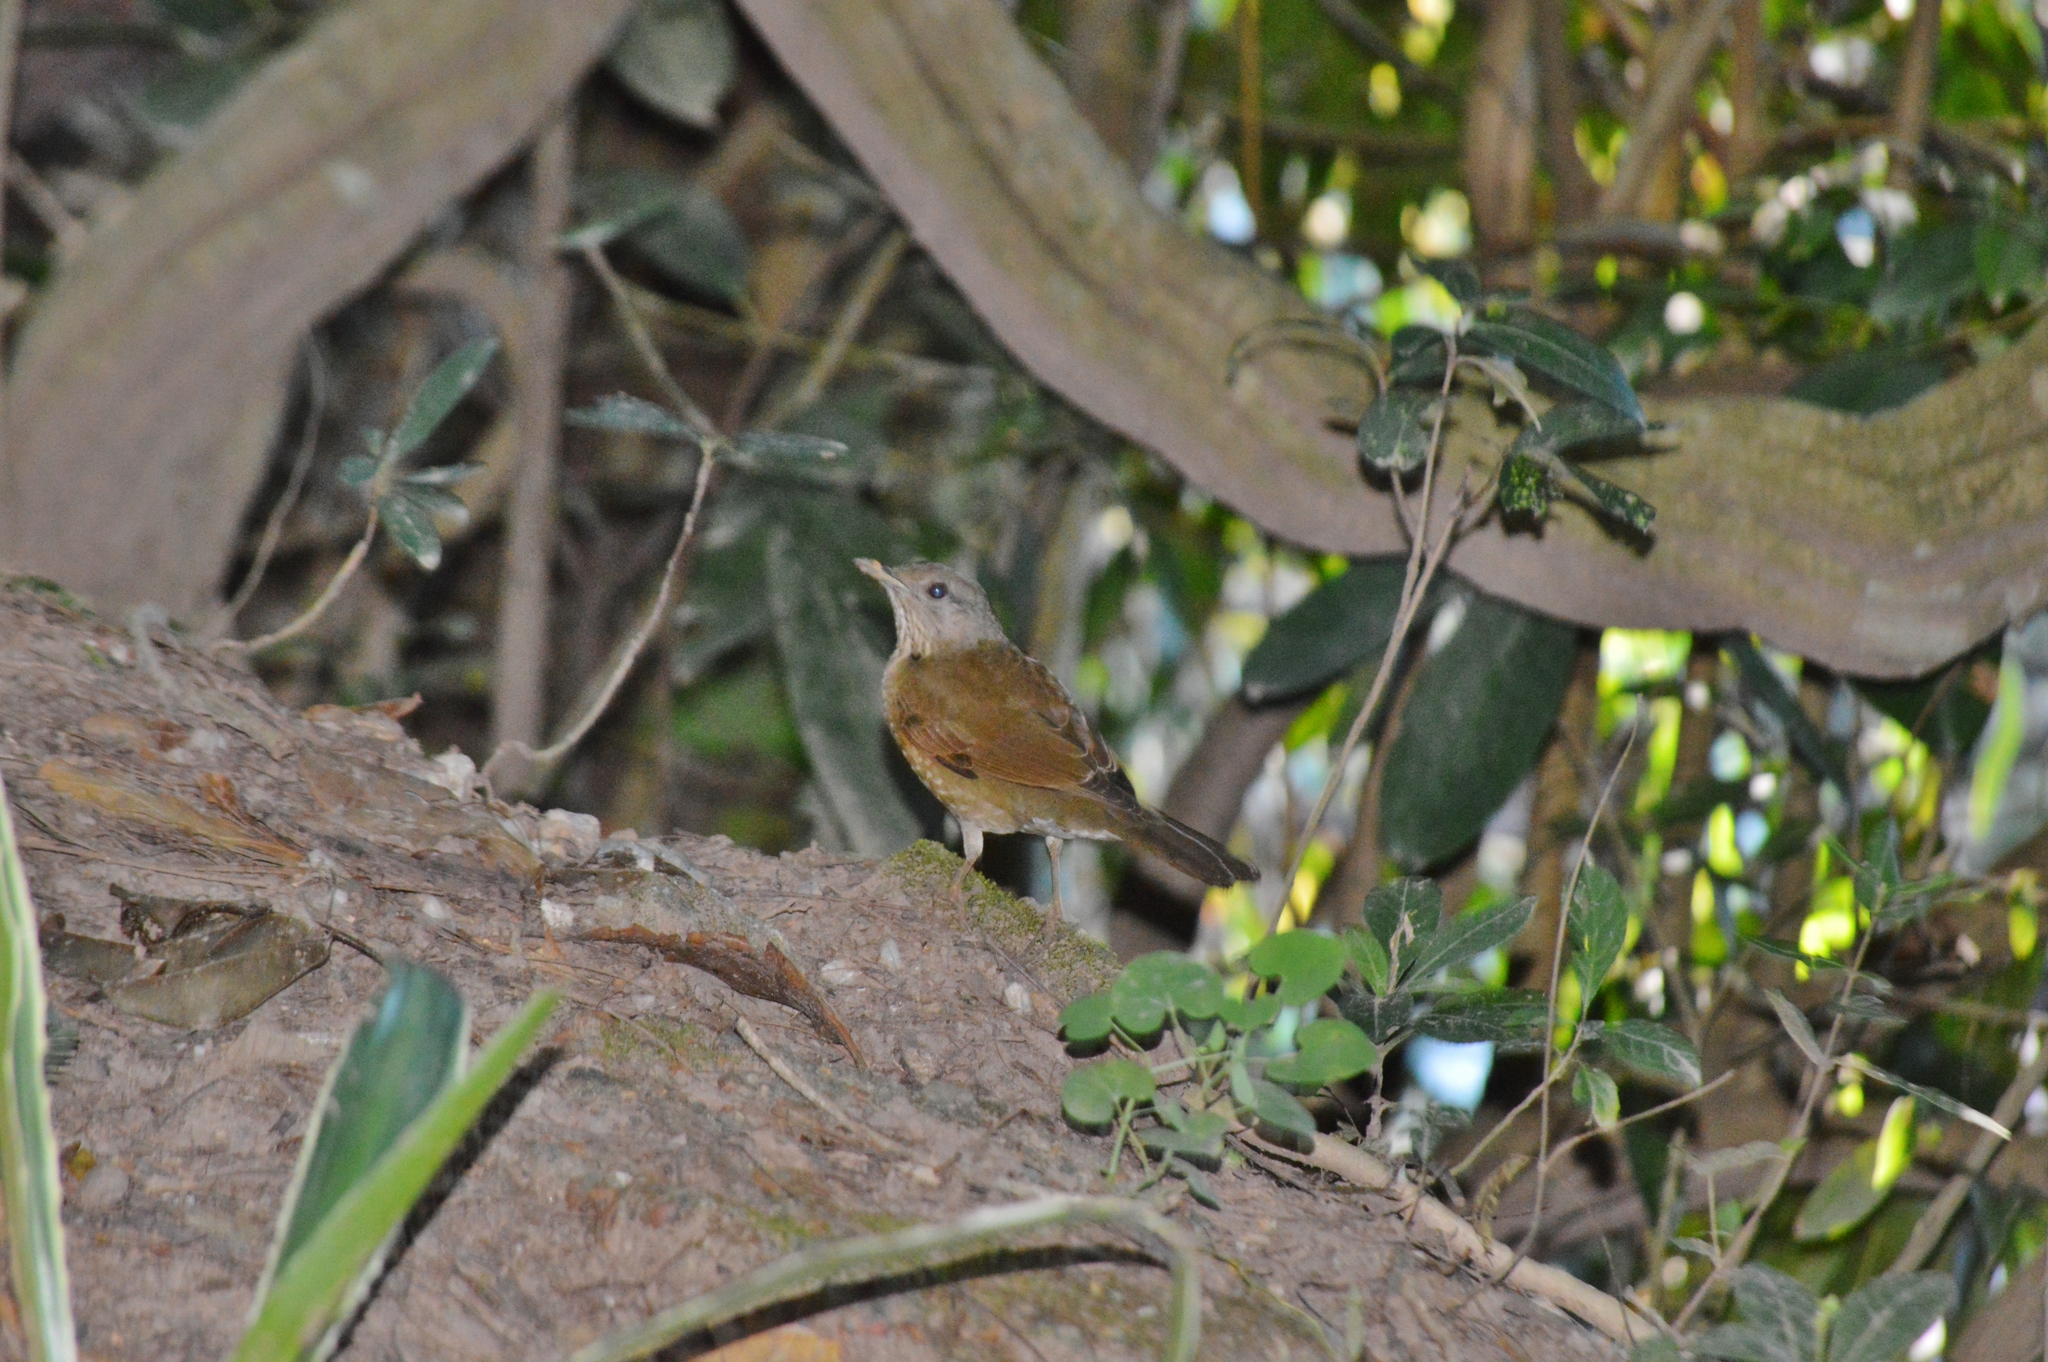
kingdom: Animalia
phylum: Chordata
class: Aves
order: Passeriformes
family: Turdidae
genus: Turdus
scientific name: Turdus leucomelas
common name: Pale-breasted thrush
